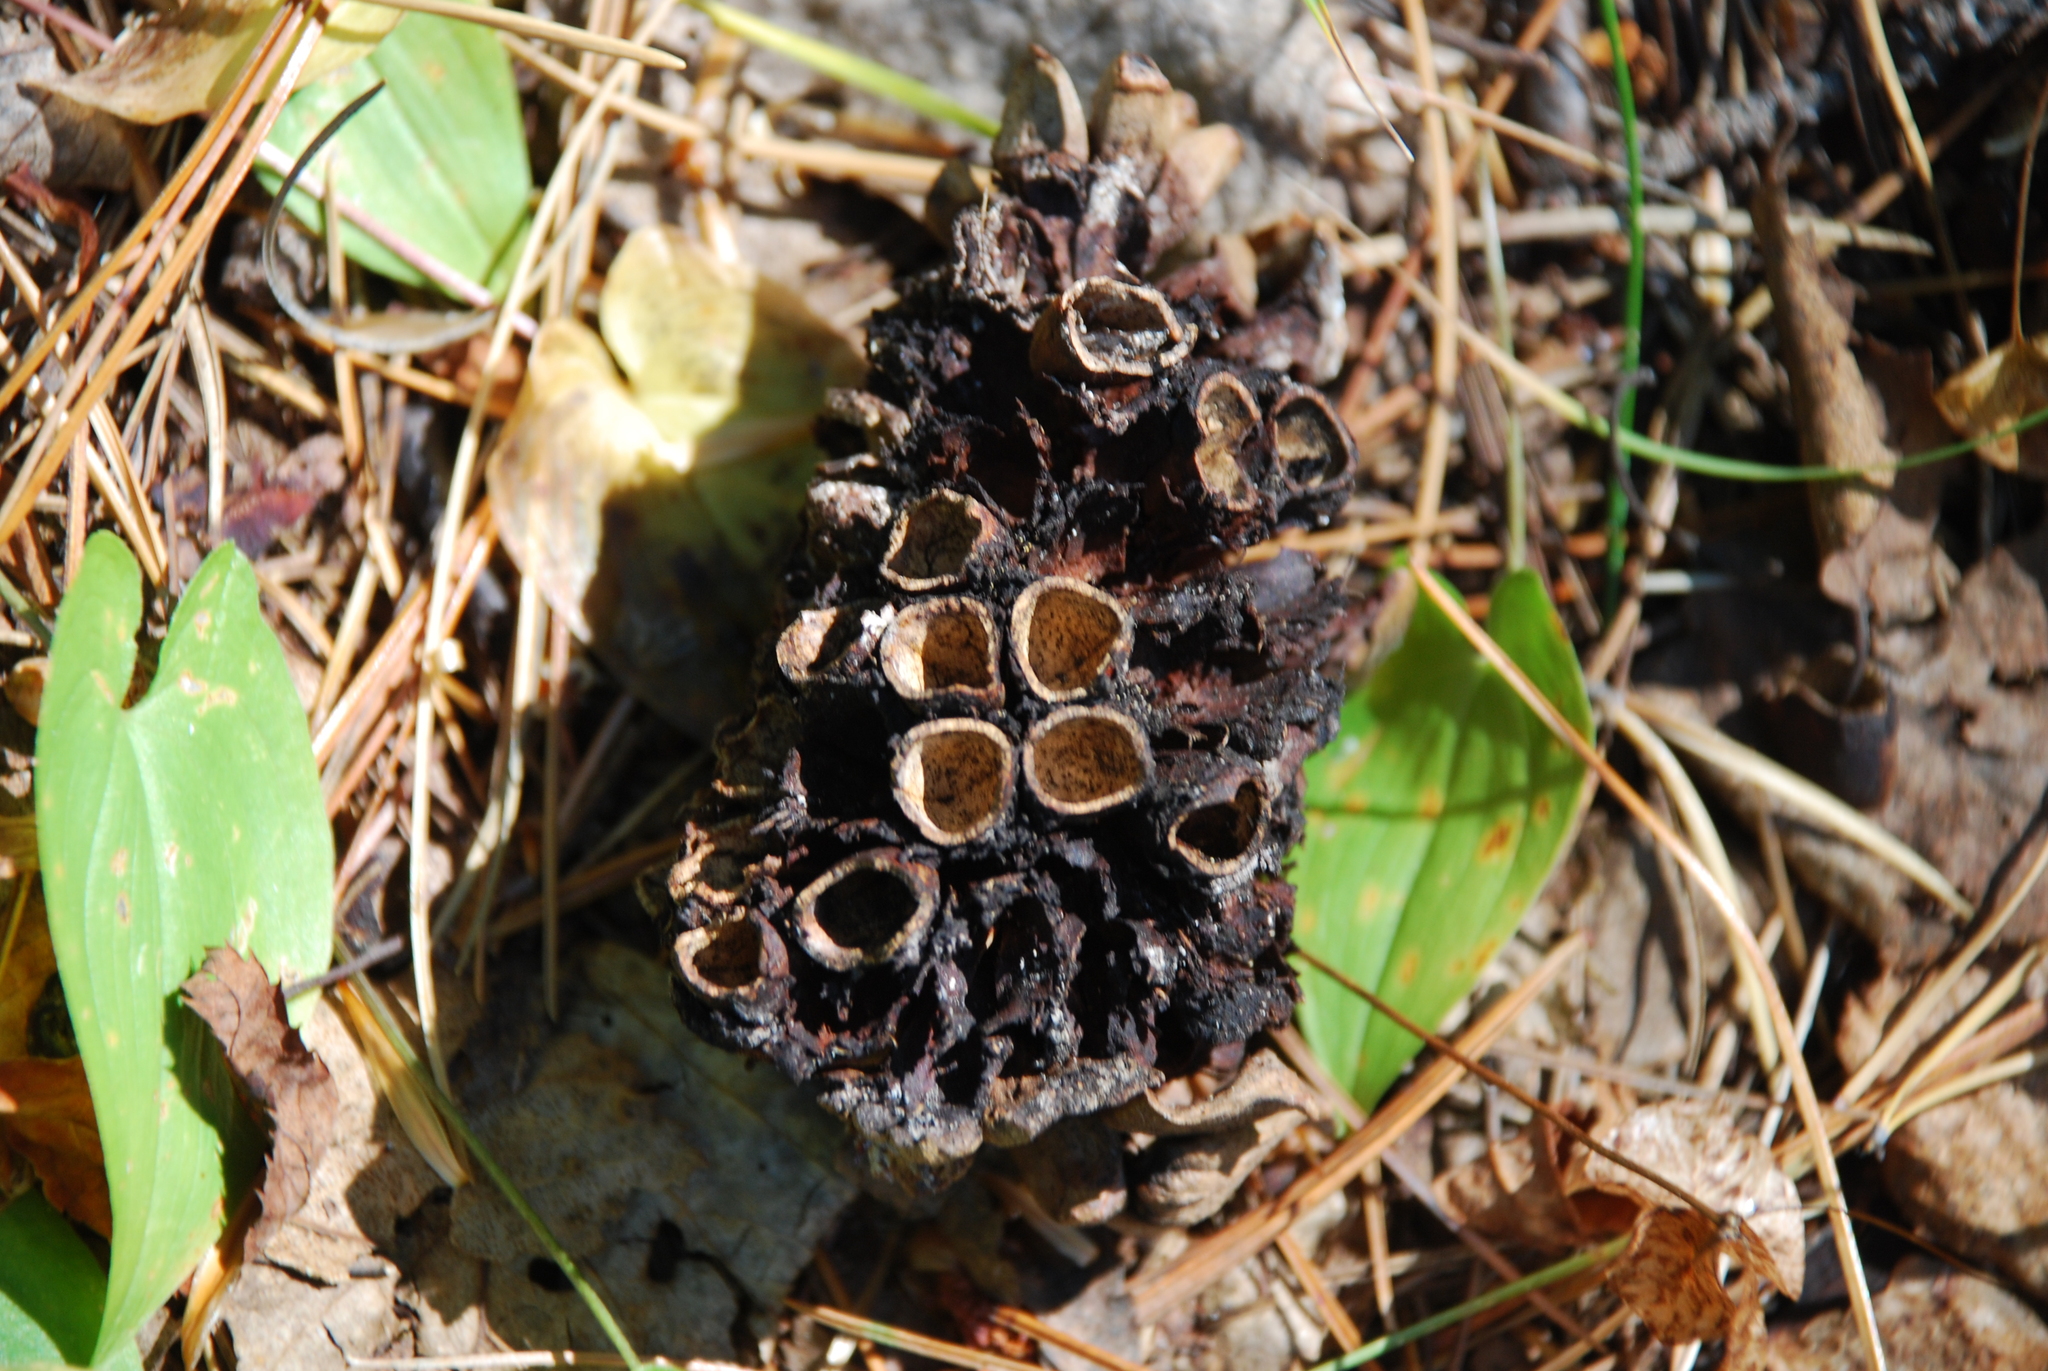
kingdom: Plantae
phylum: Tracheophyta
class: Pinopsida
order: Pinales
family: Pinaceae
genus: Pinus
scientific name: Pinus sibirica
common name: Siberian pine
